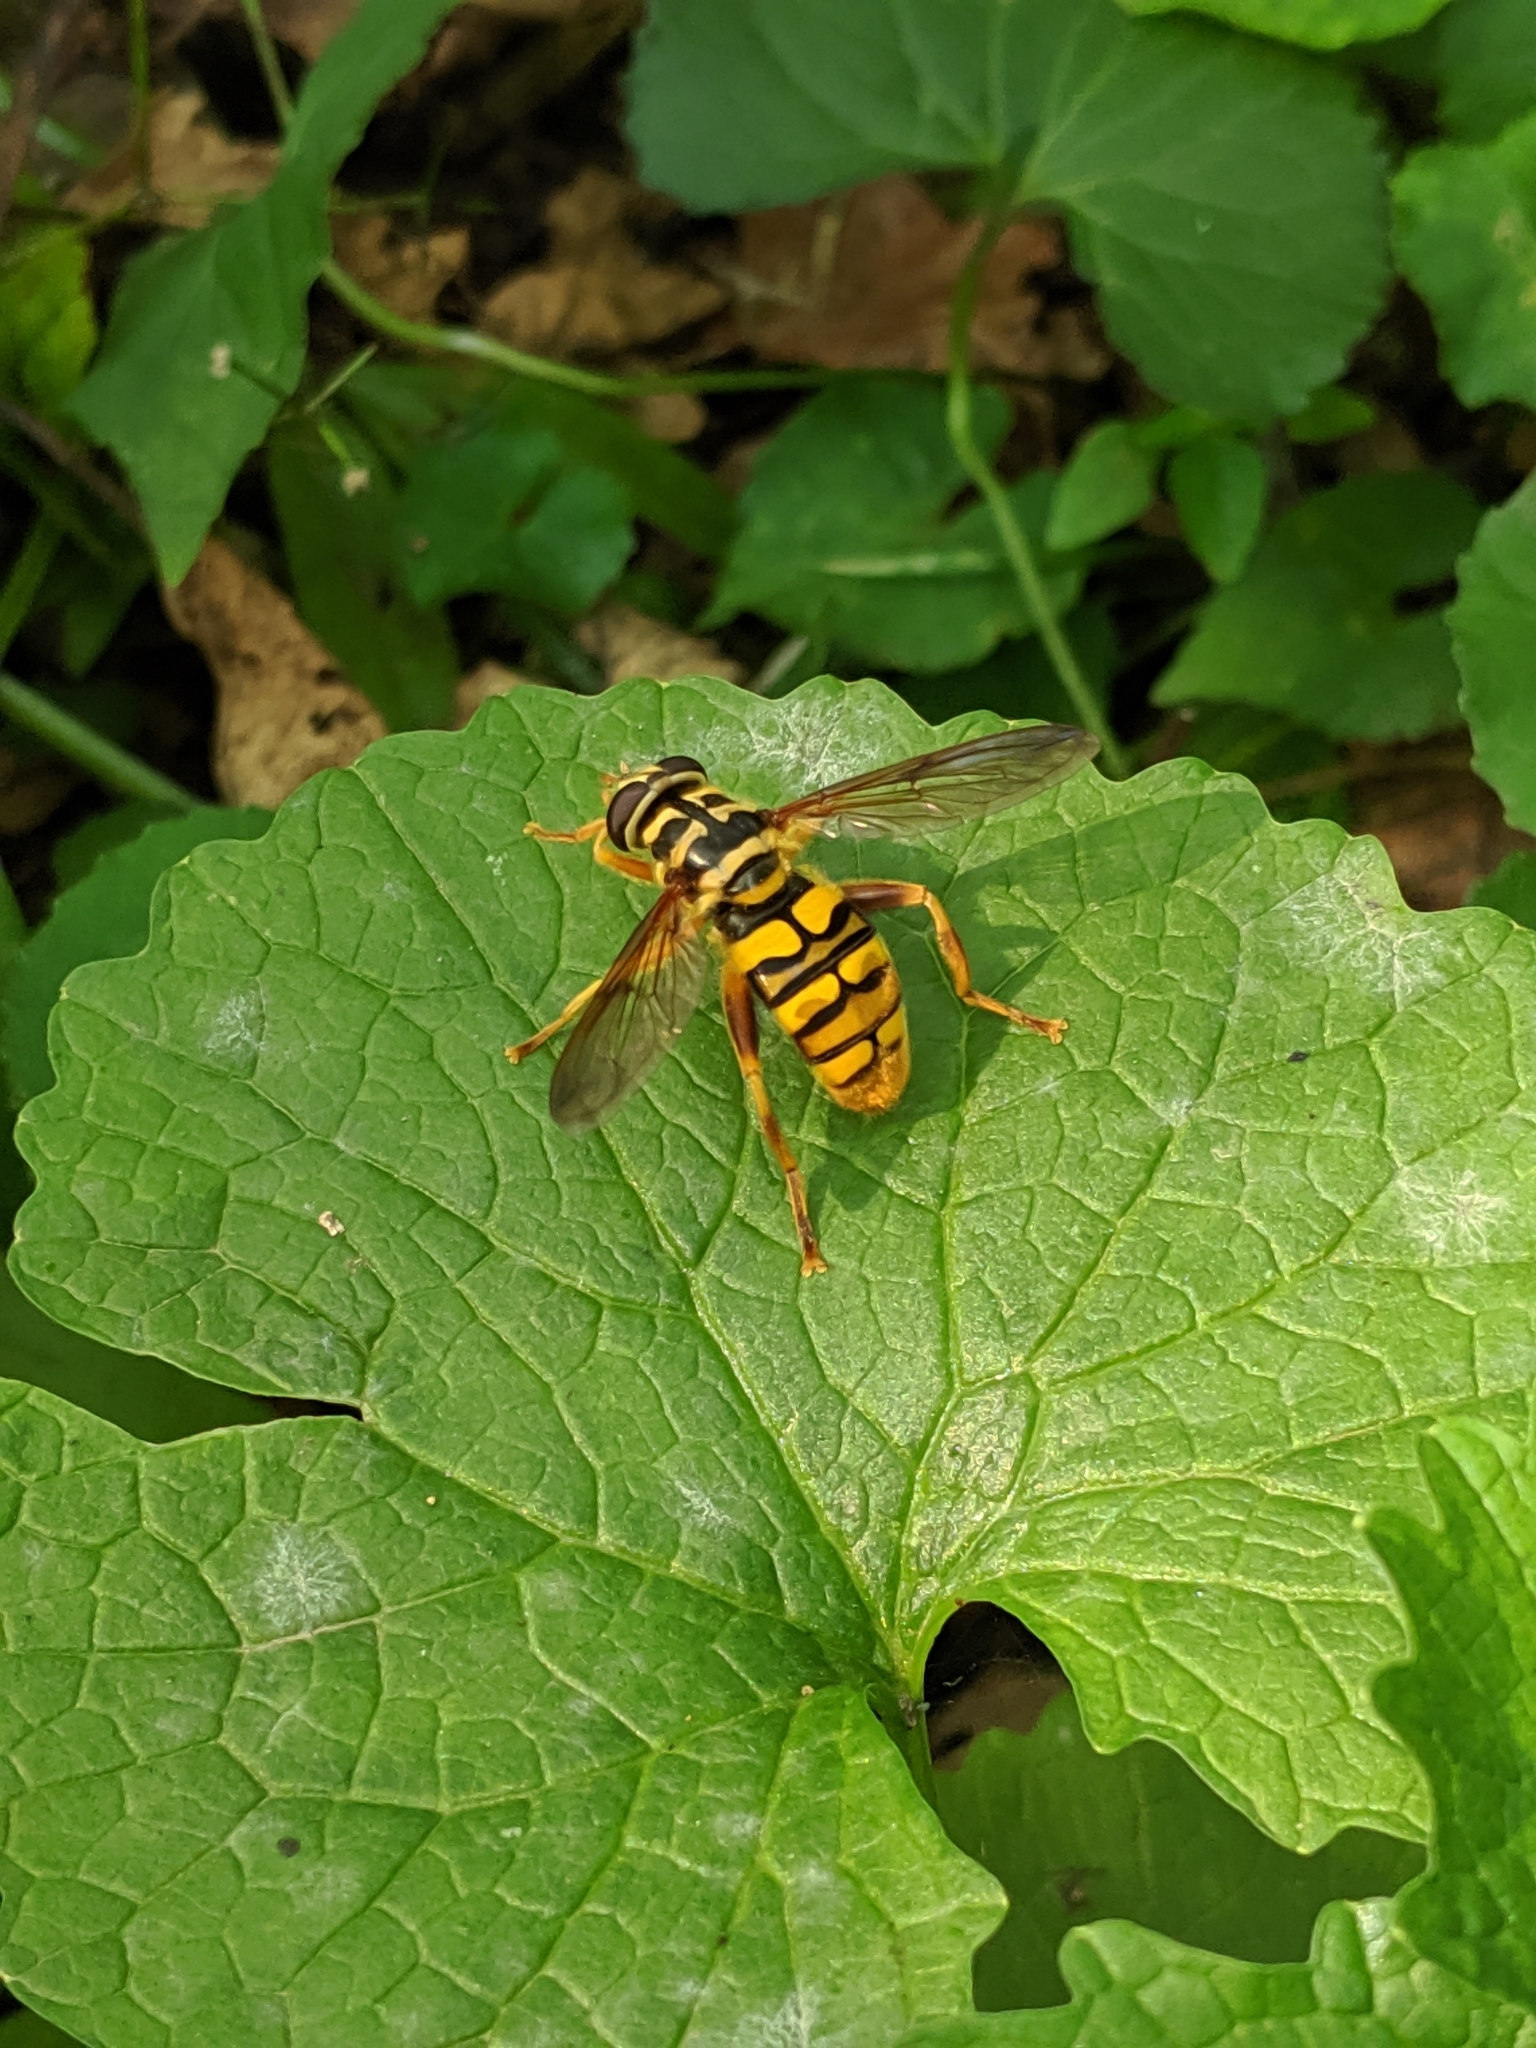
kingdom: Animalia
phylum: Arthropoda
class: Insecta
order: Diptera
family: Syrphidae
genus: Milesia
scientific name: Milesia virginiensis
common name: Virginia giant
